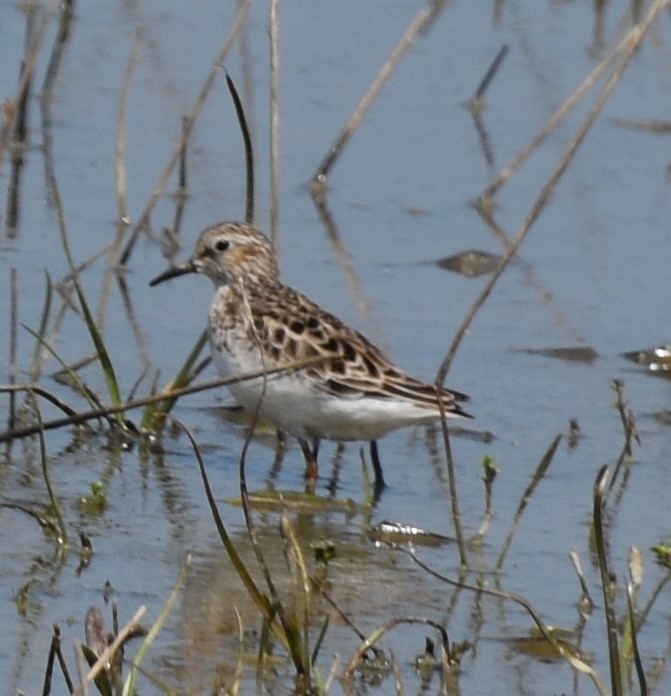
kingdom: Animalia
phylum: Chordata
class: Aves
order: Charadriiformes
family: Scolopacidae
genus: Calidris
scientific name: Calidris minutilla
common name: Least sandpiper
